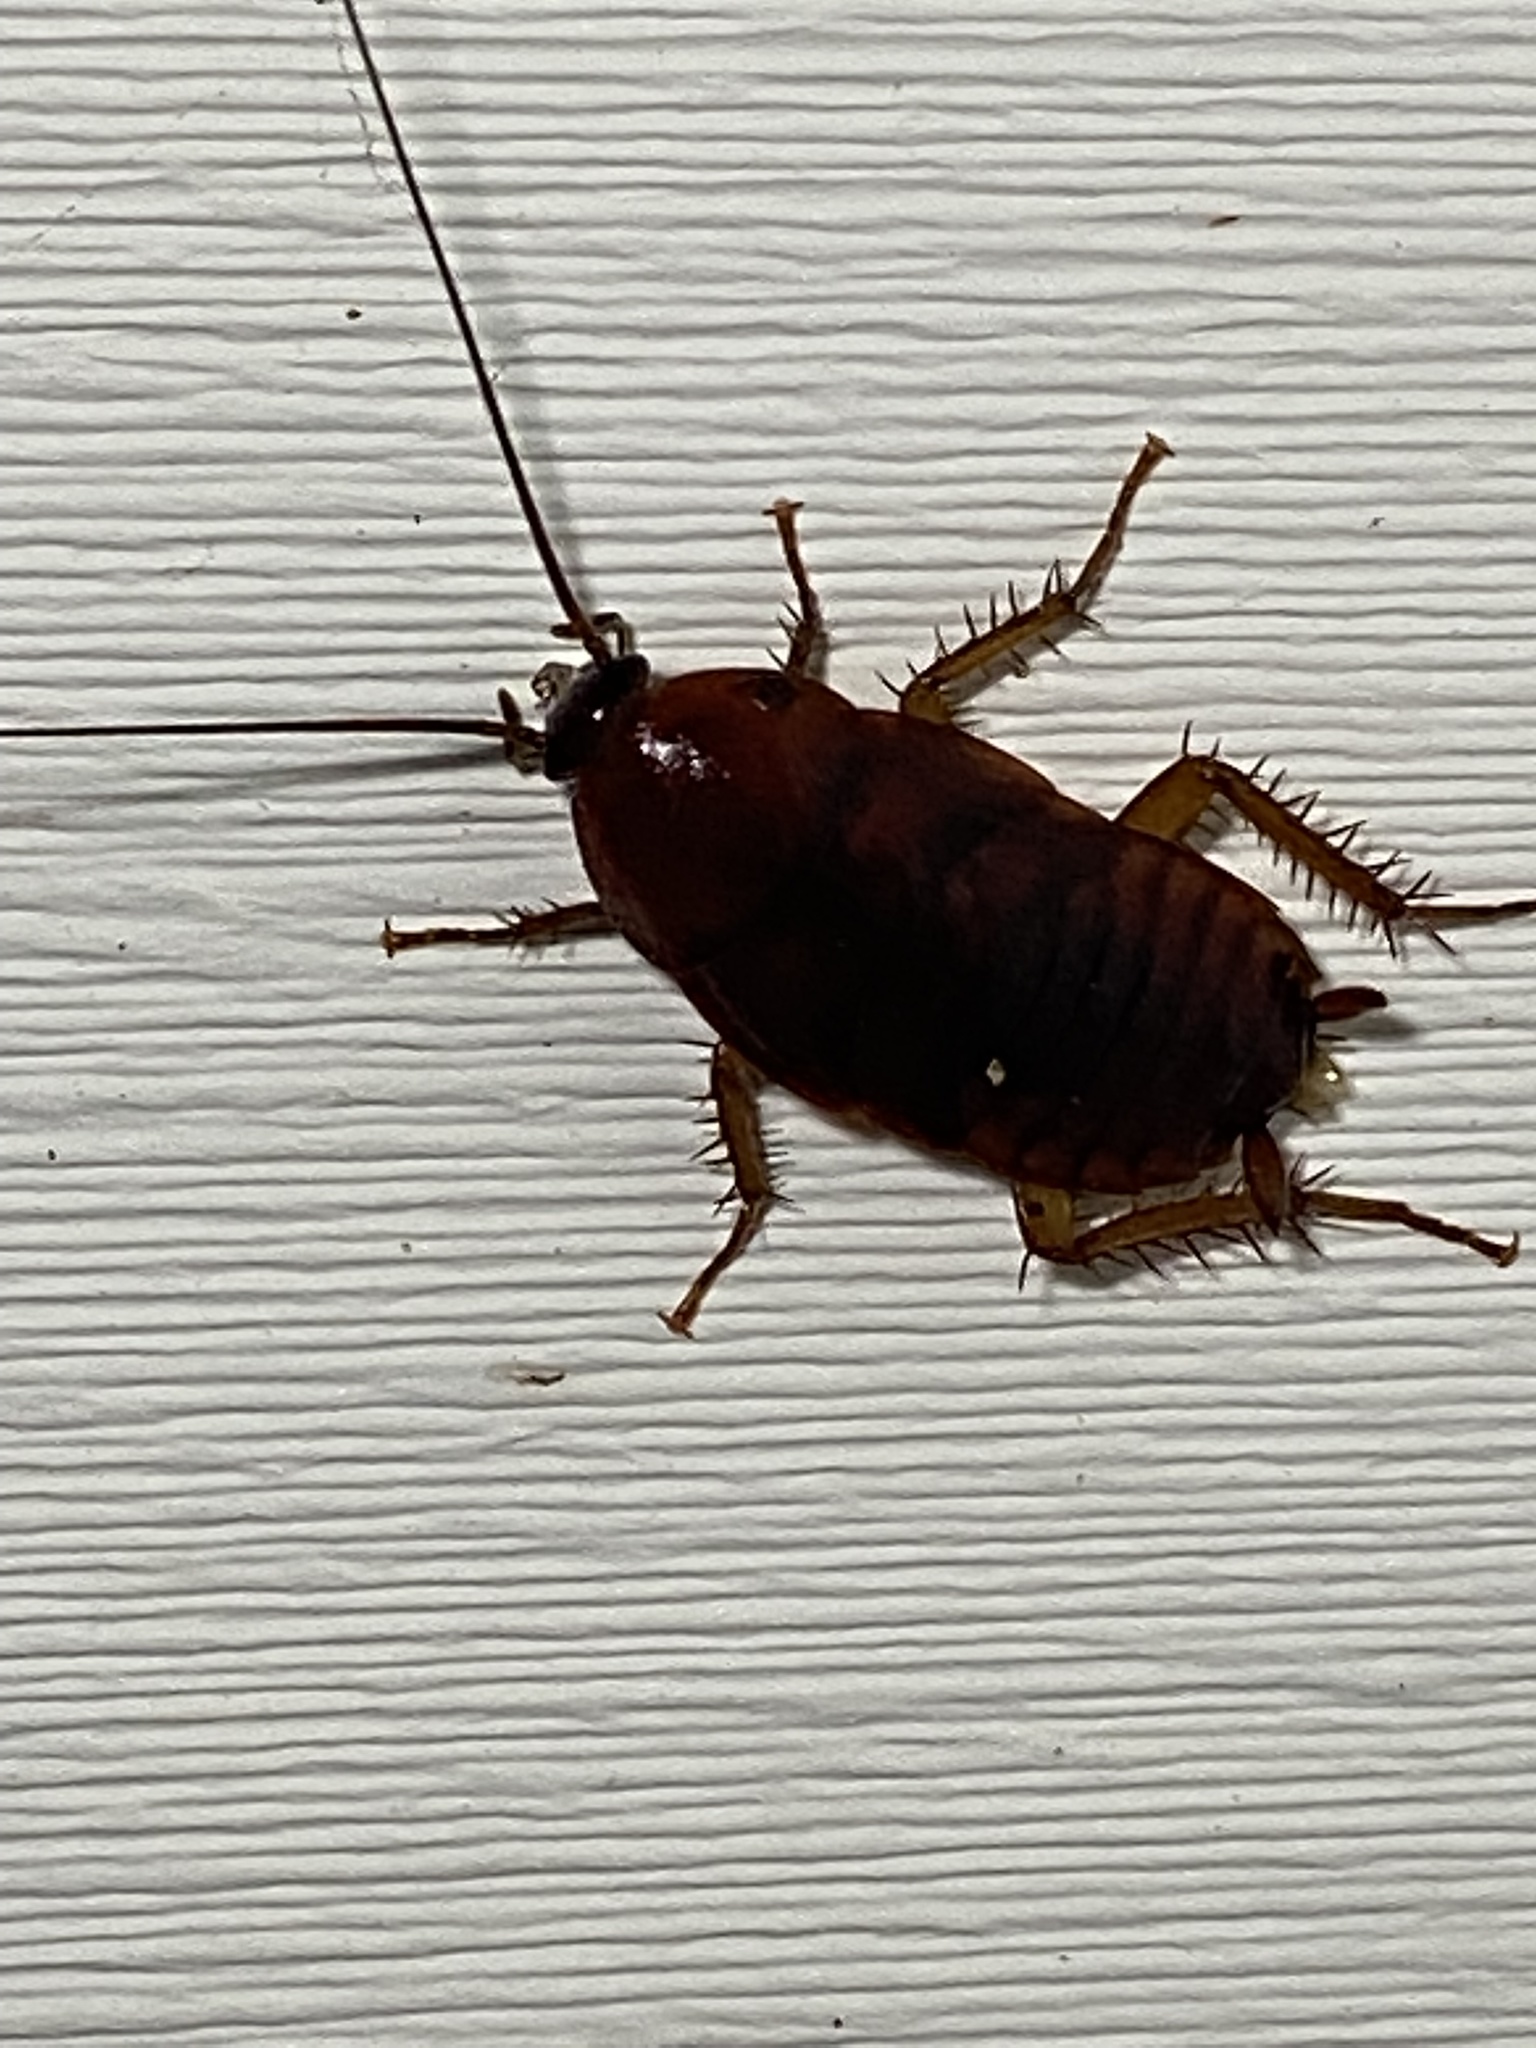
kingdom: Animalia
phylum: Arthropoda
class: Insecta
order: Blattodea
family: Blattidae
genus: Periplaneta
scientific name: Periplaneta fuliginosa
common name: Smokeybrown cockroad
